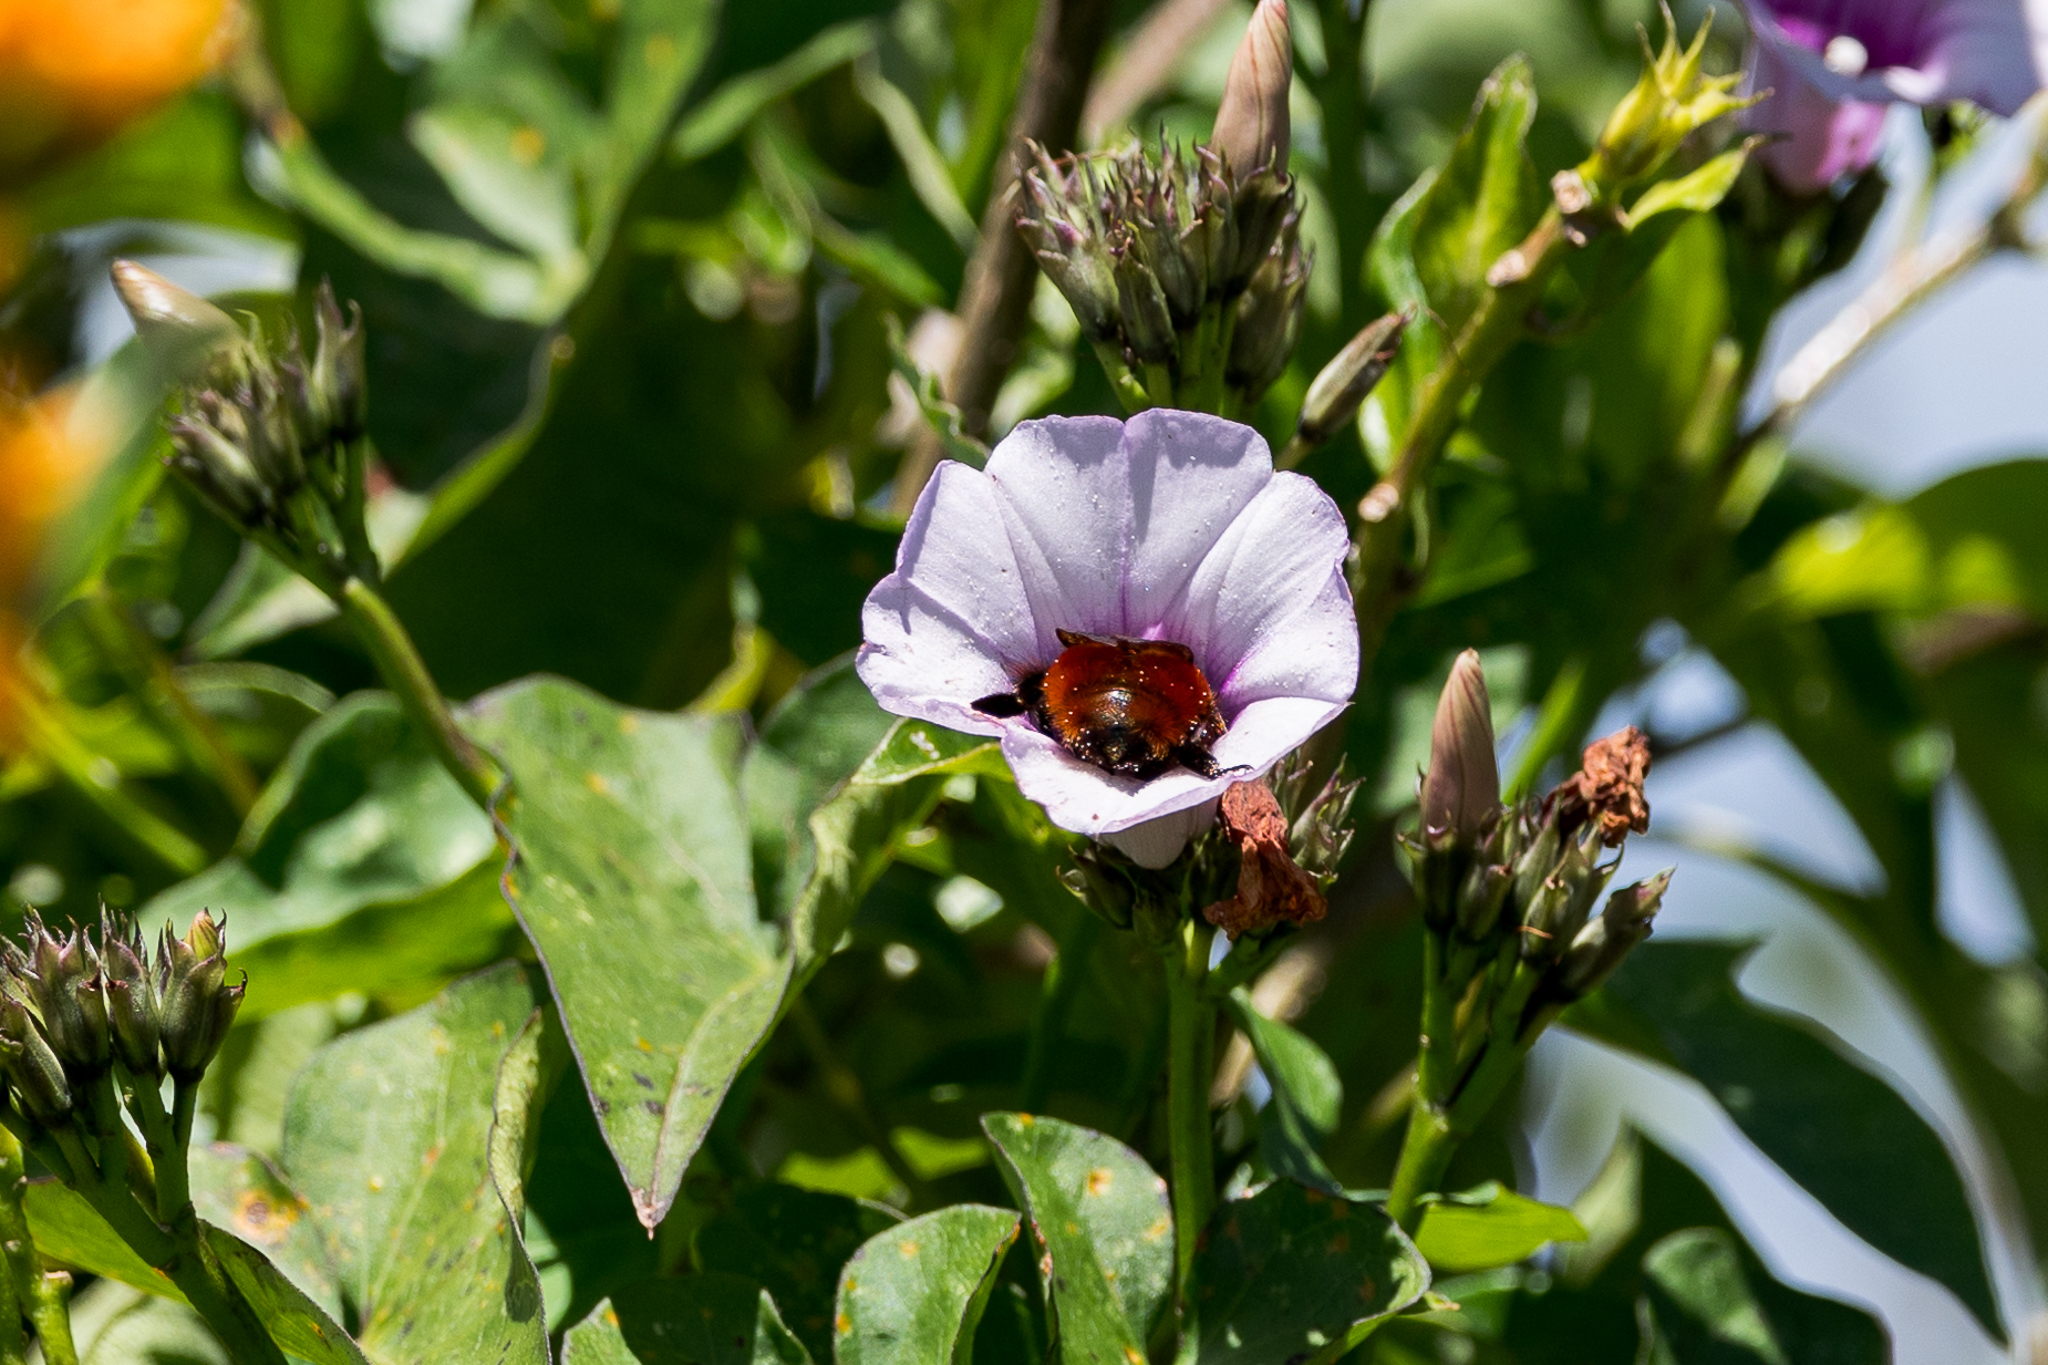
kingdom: Animalia
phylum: Arthropoda
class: Insecta
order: Hymenoptera
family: Apidae
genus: Bombus
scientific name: Bombus ephippiatus
